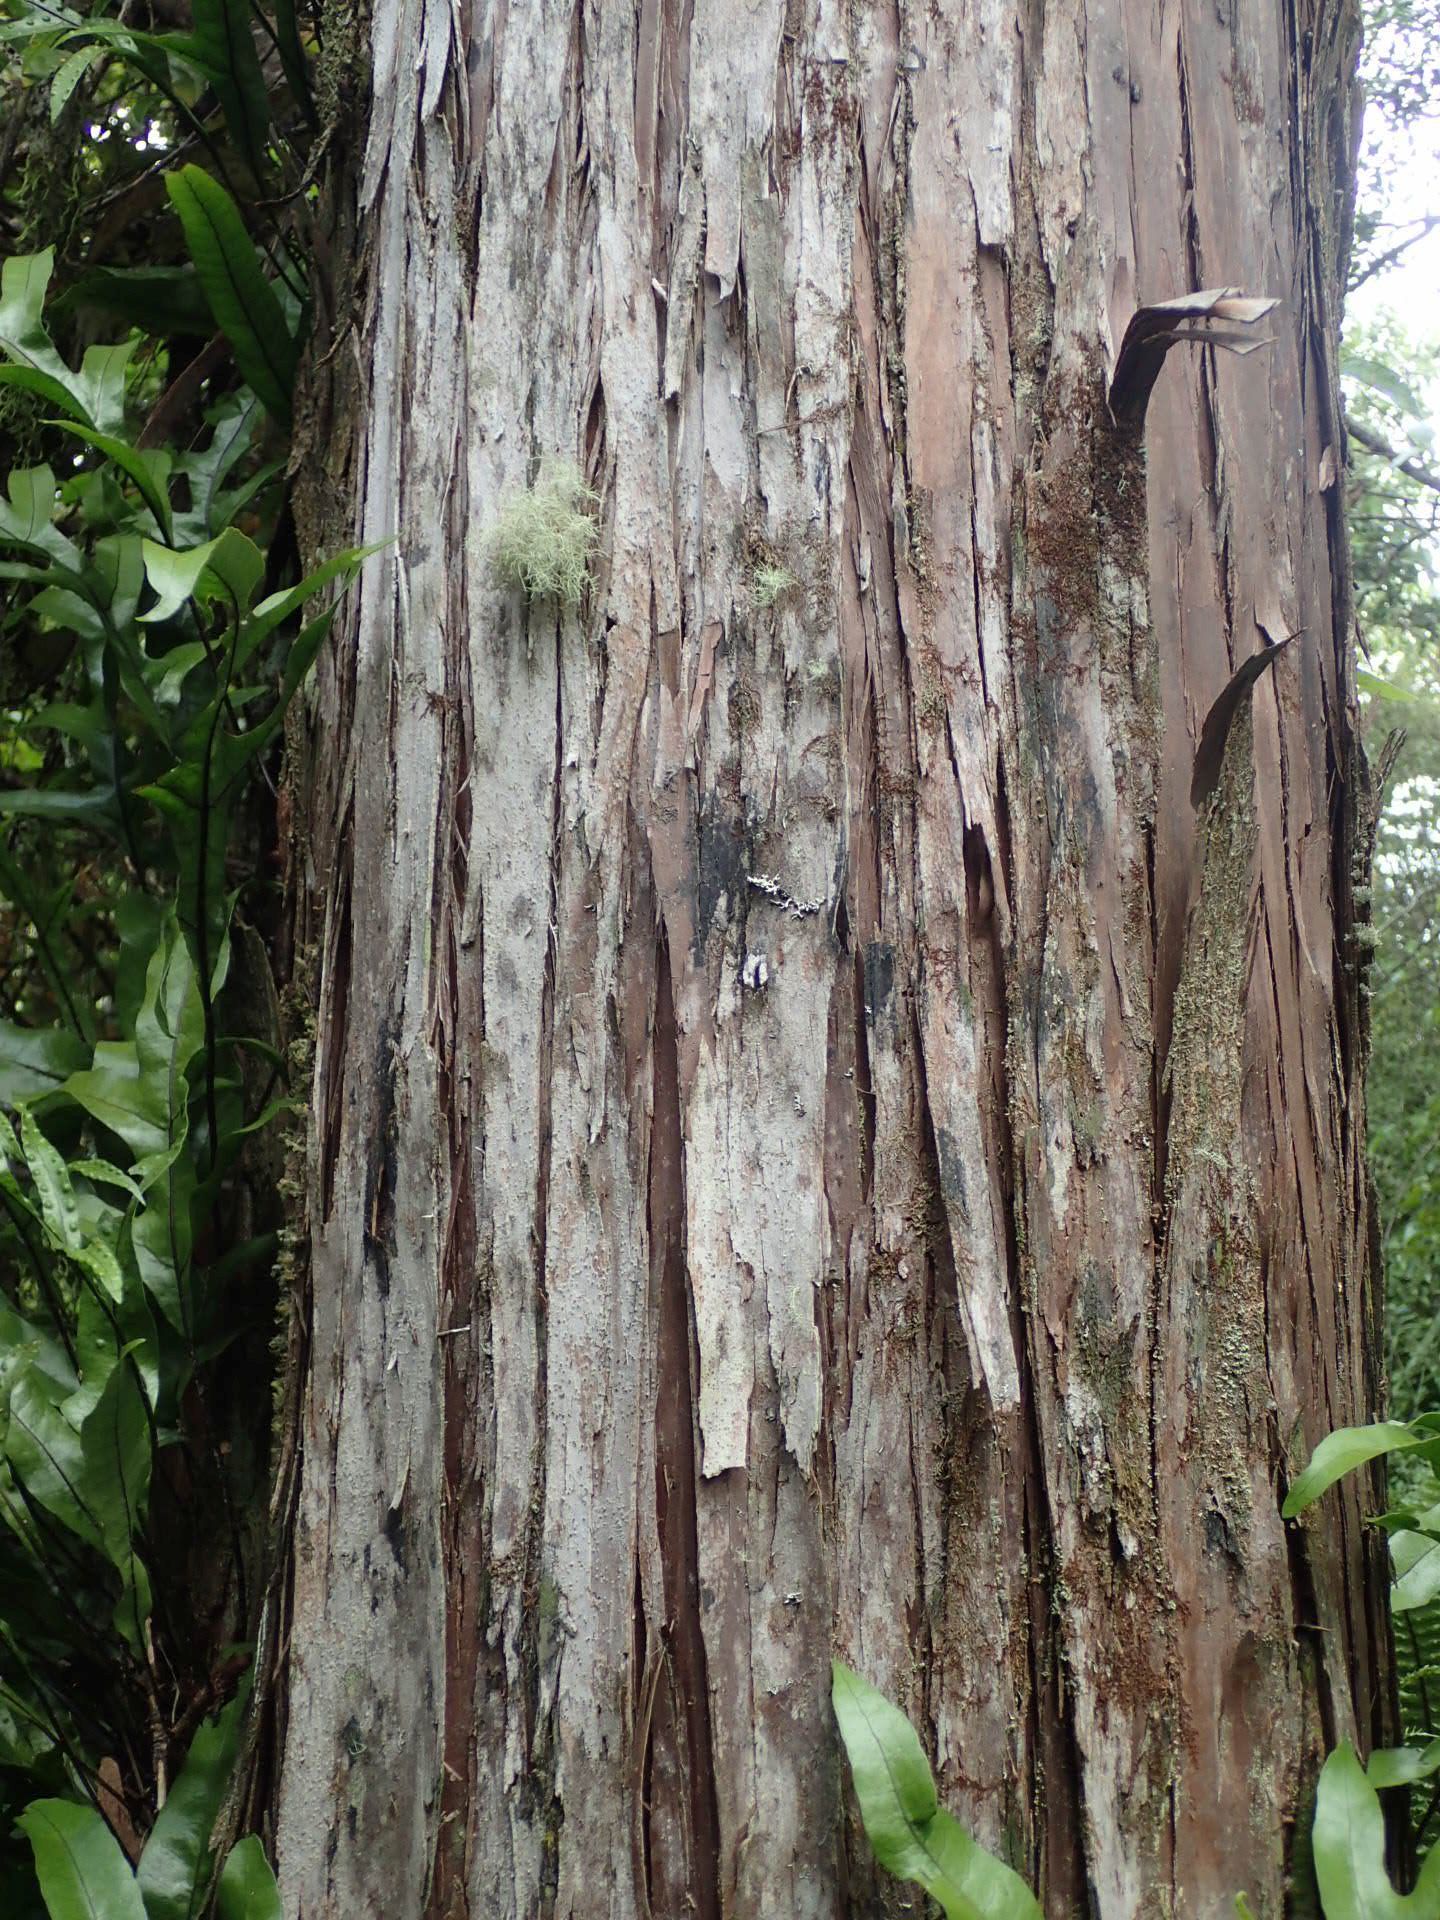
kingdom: Plantae
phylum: Tracheophyta
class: Pinopsida
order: Pinales
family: Cupressaceae
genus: Libocedrus
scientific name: Libocedrus bidwillii
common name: Cedar
